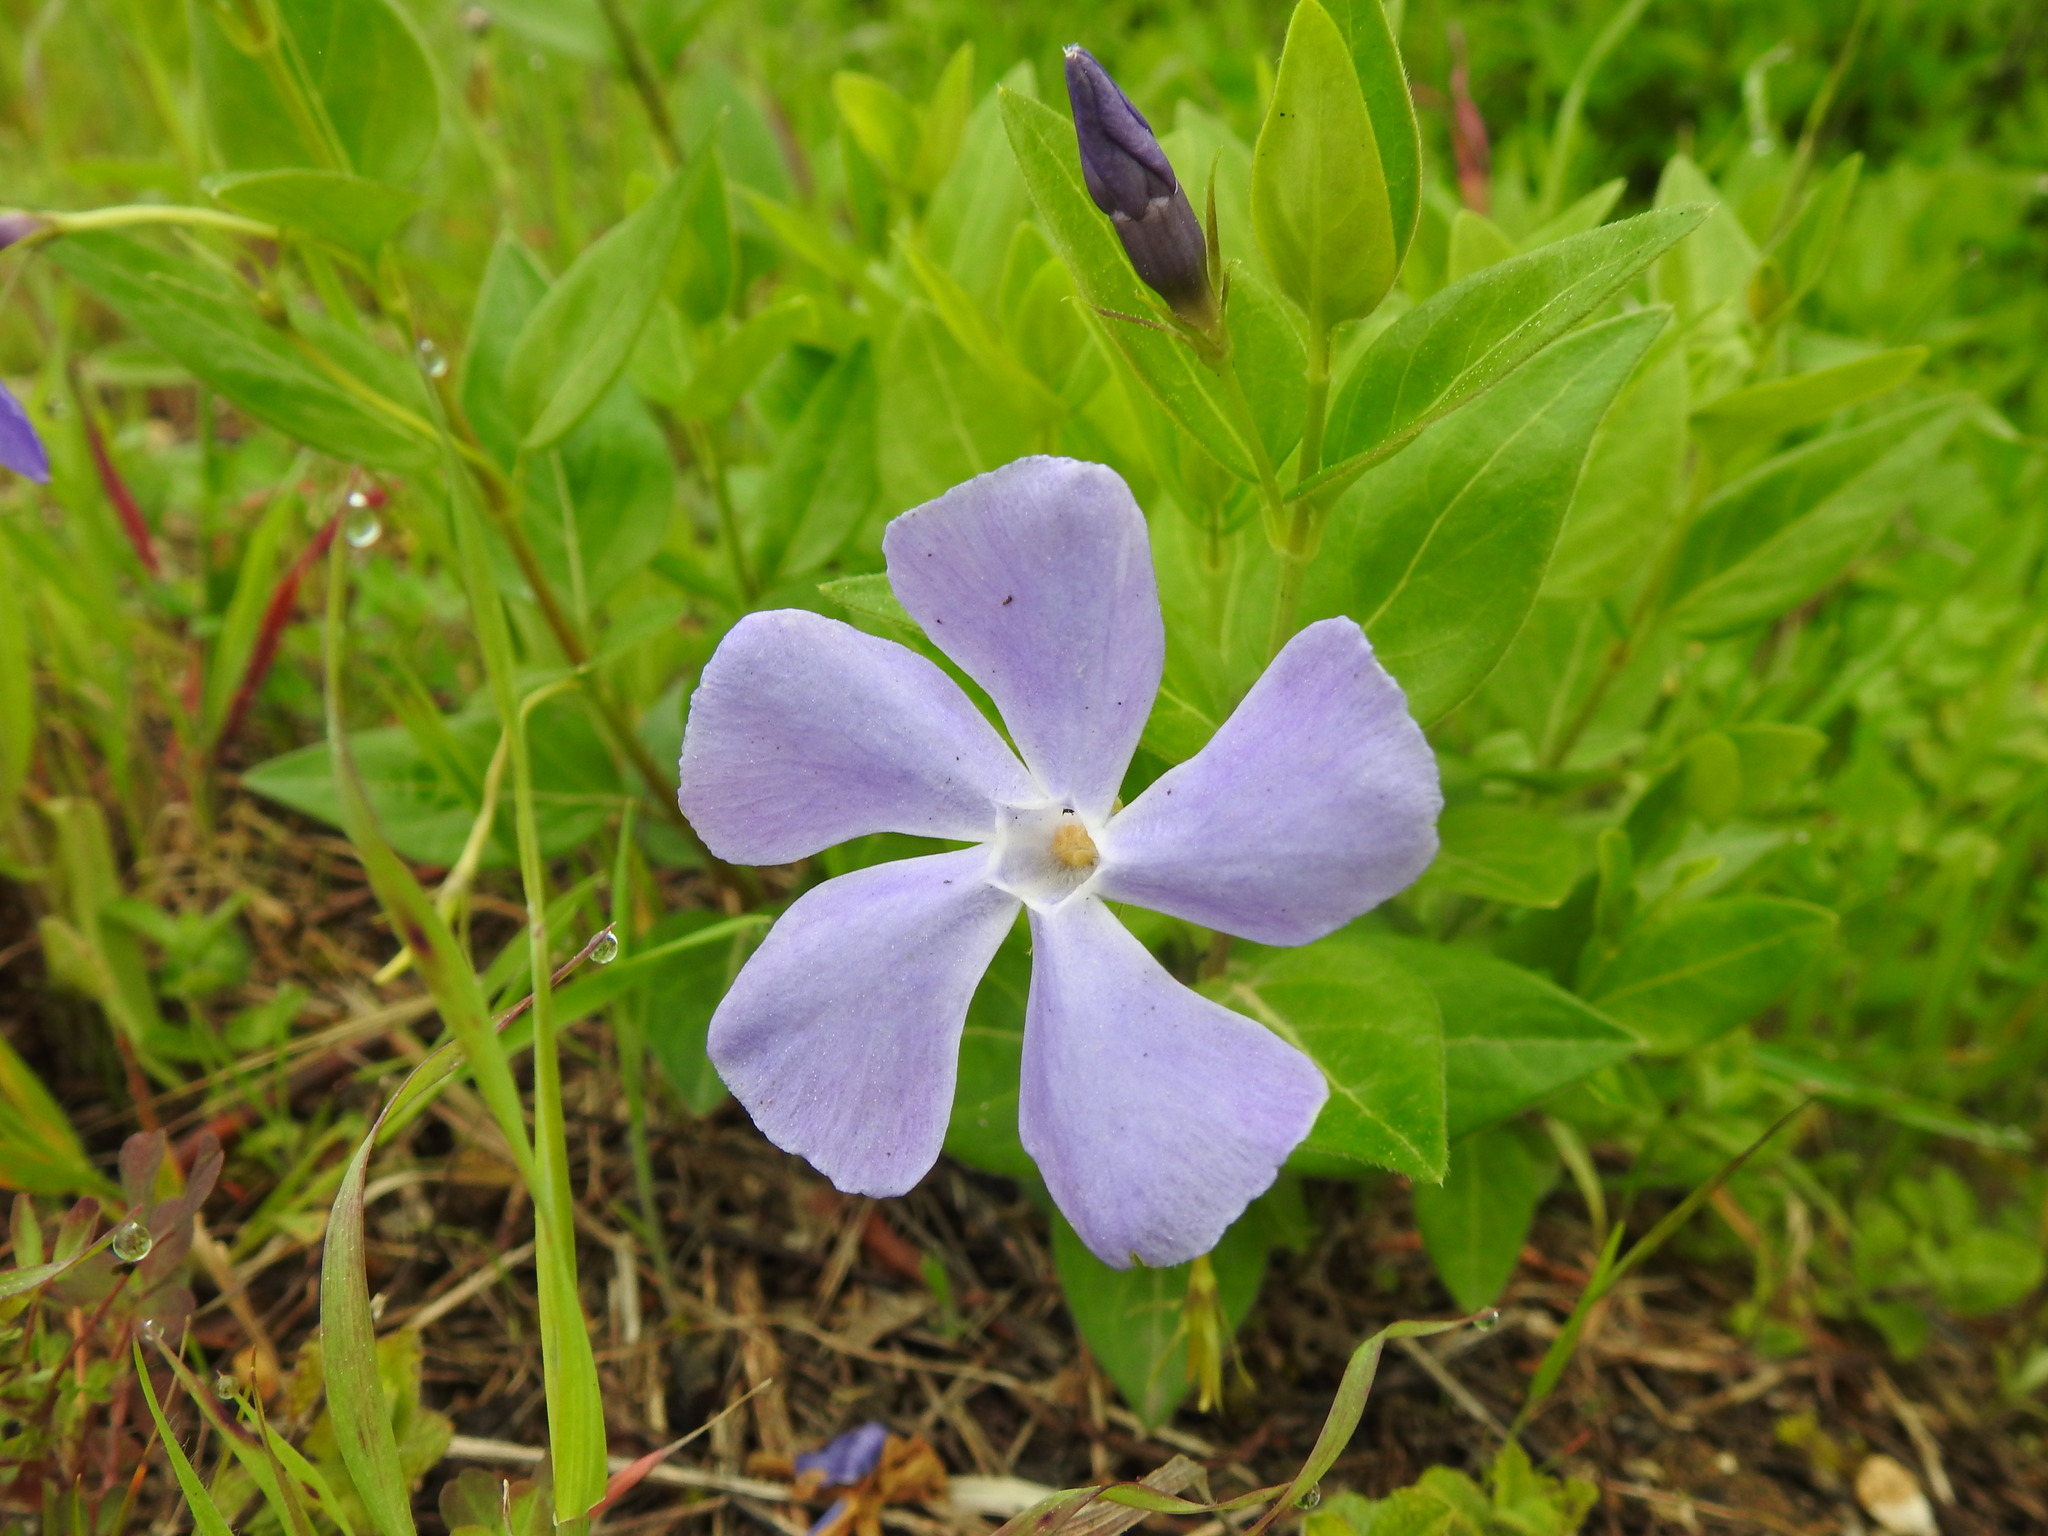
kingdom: Plantae
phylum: Tracheophyta
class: Magnoliopsida
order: Gentianales
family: Apocynaceae
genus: Vinca
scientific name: Vinca major
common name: Greater periwinkle
